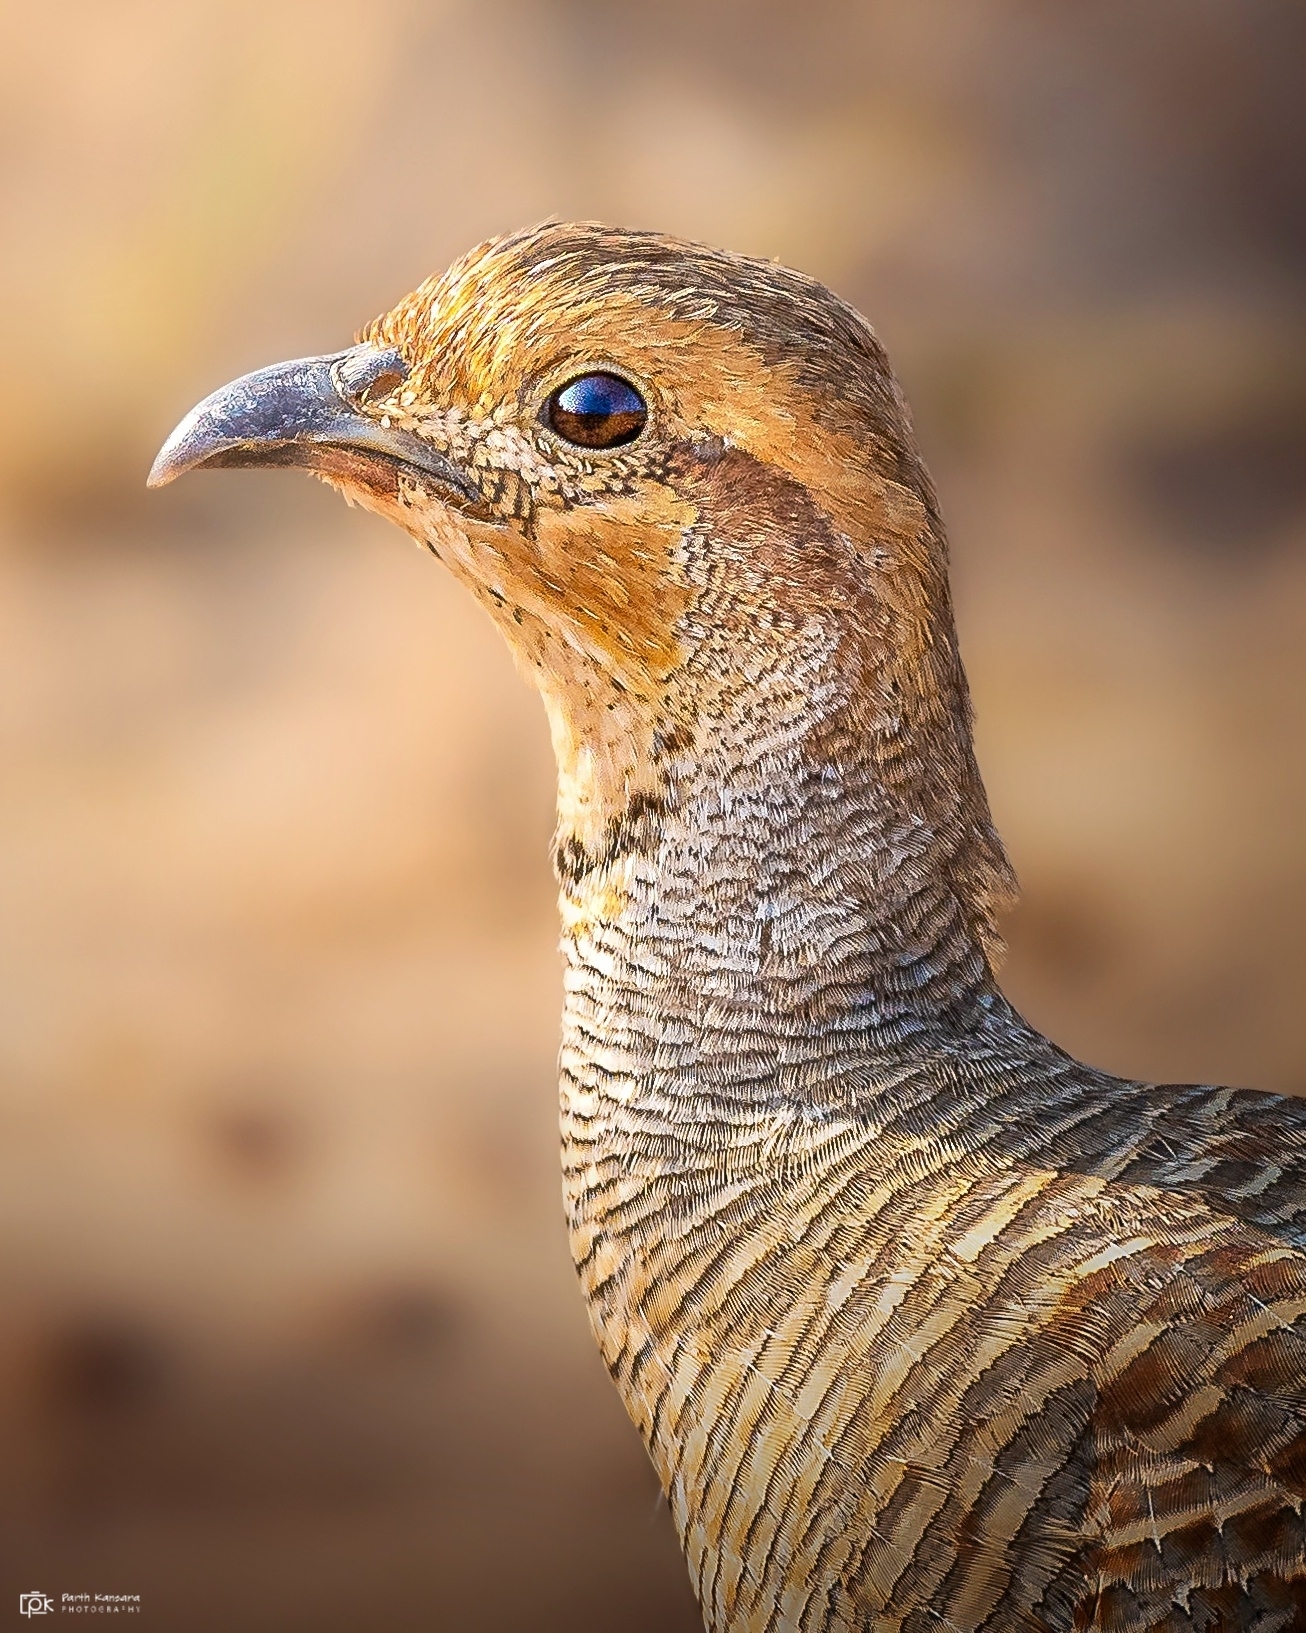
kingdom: Animalia
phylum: Chordata
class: Aves
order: Galliformes
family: Phasianidae
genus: Ortygornis
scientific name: Ortygornis pondicerianus
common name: Grey francolin
